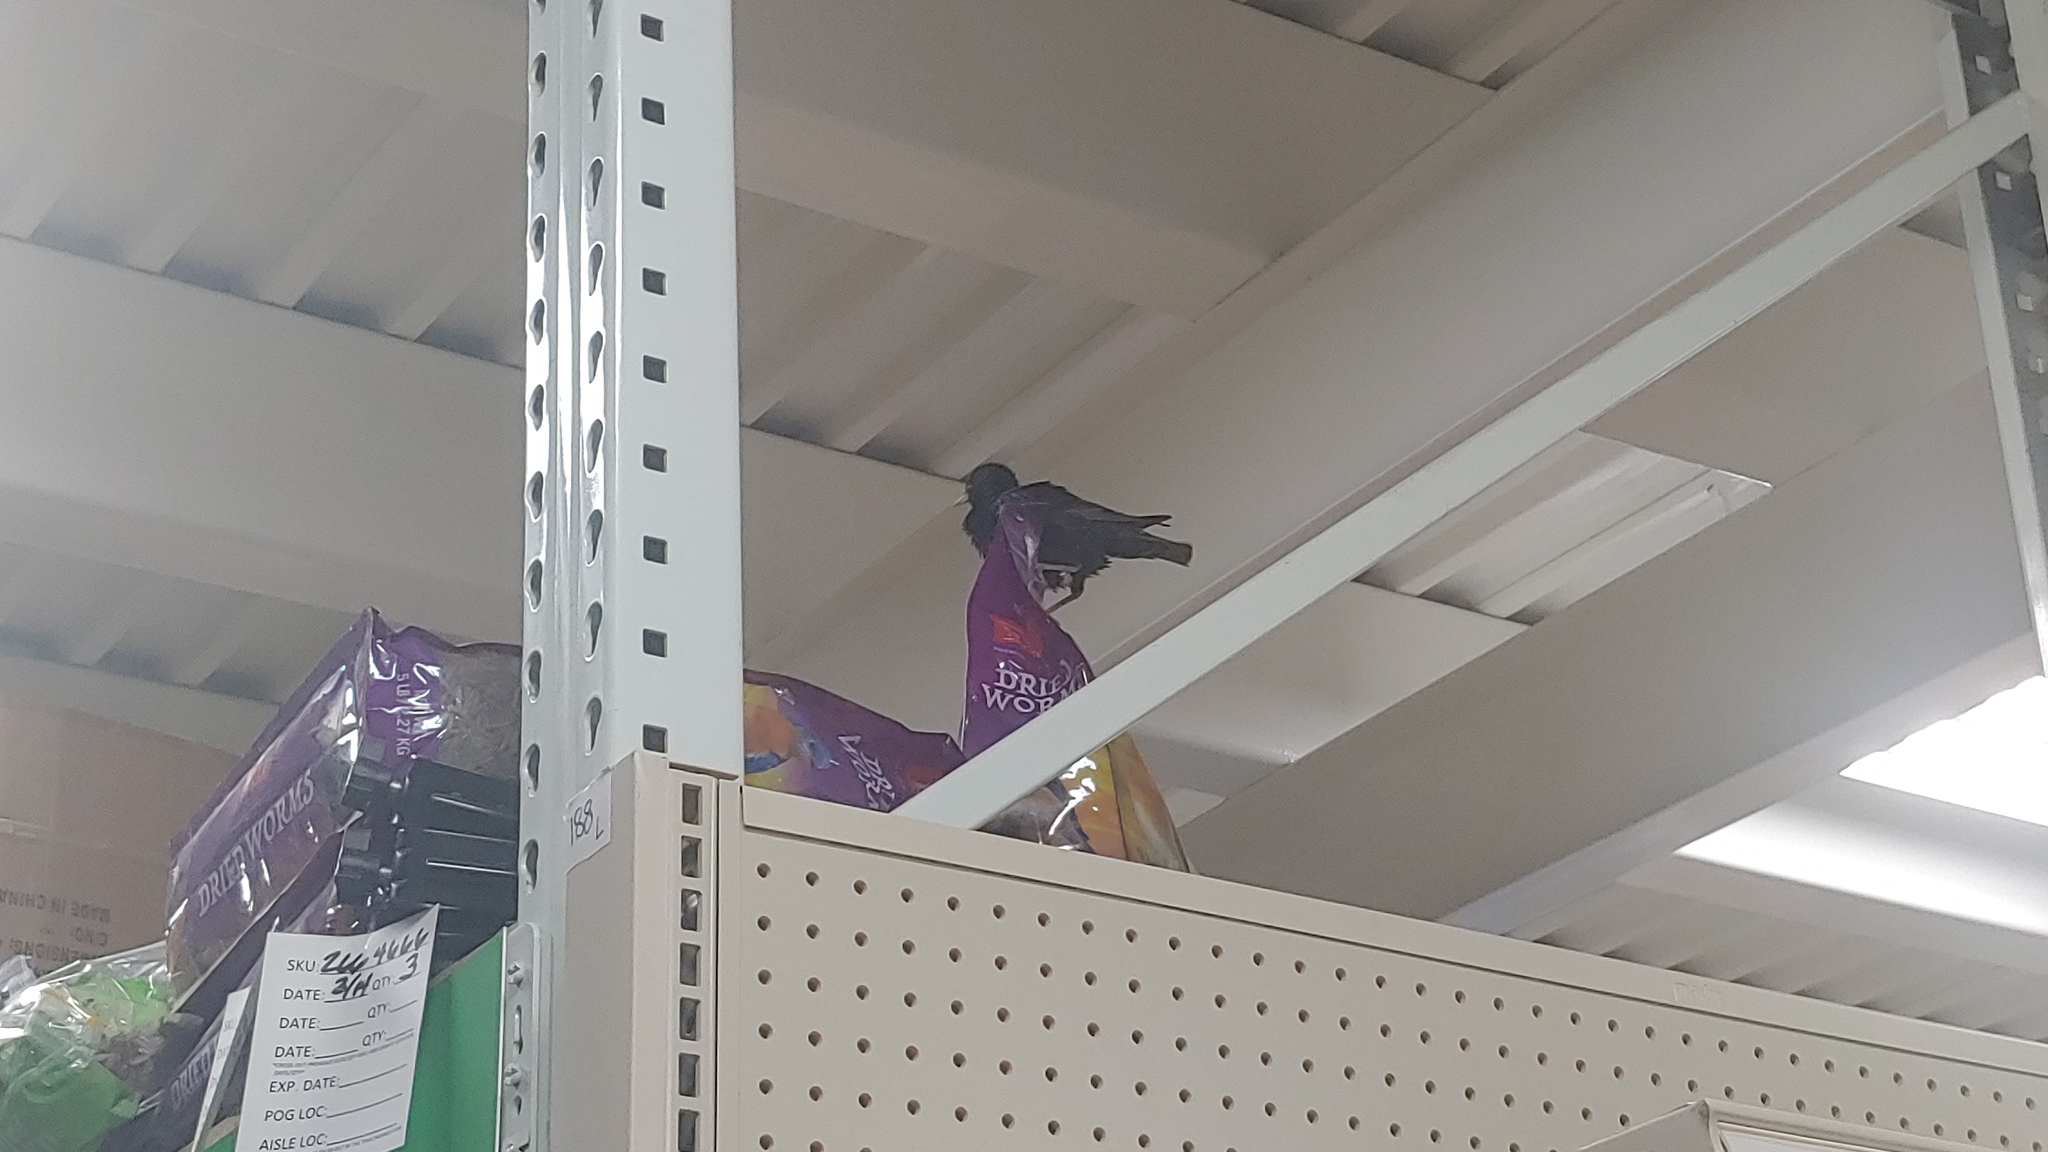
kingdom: Animalia
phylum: Chordata
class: Aves
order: Passeriformes
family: Sturnidae
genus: Sturnus
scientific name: Sturnus vulgaris
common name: Common starling
